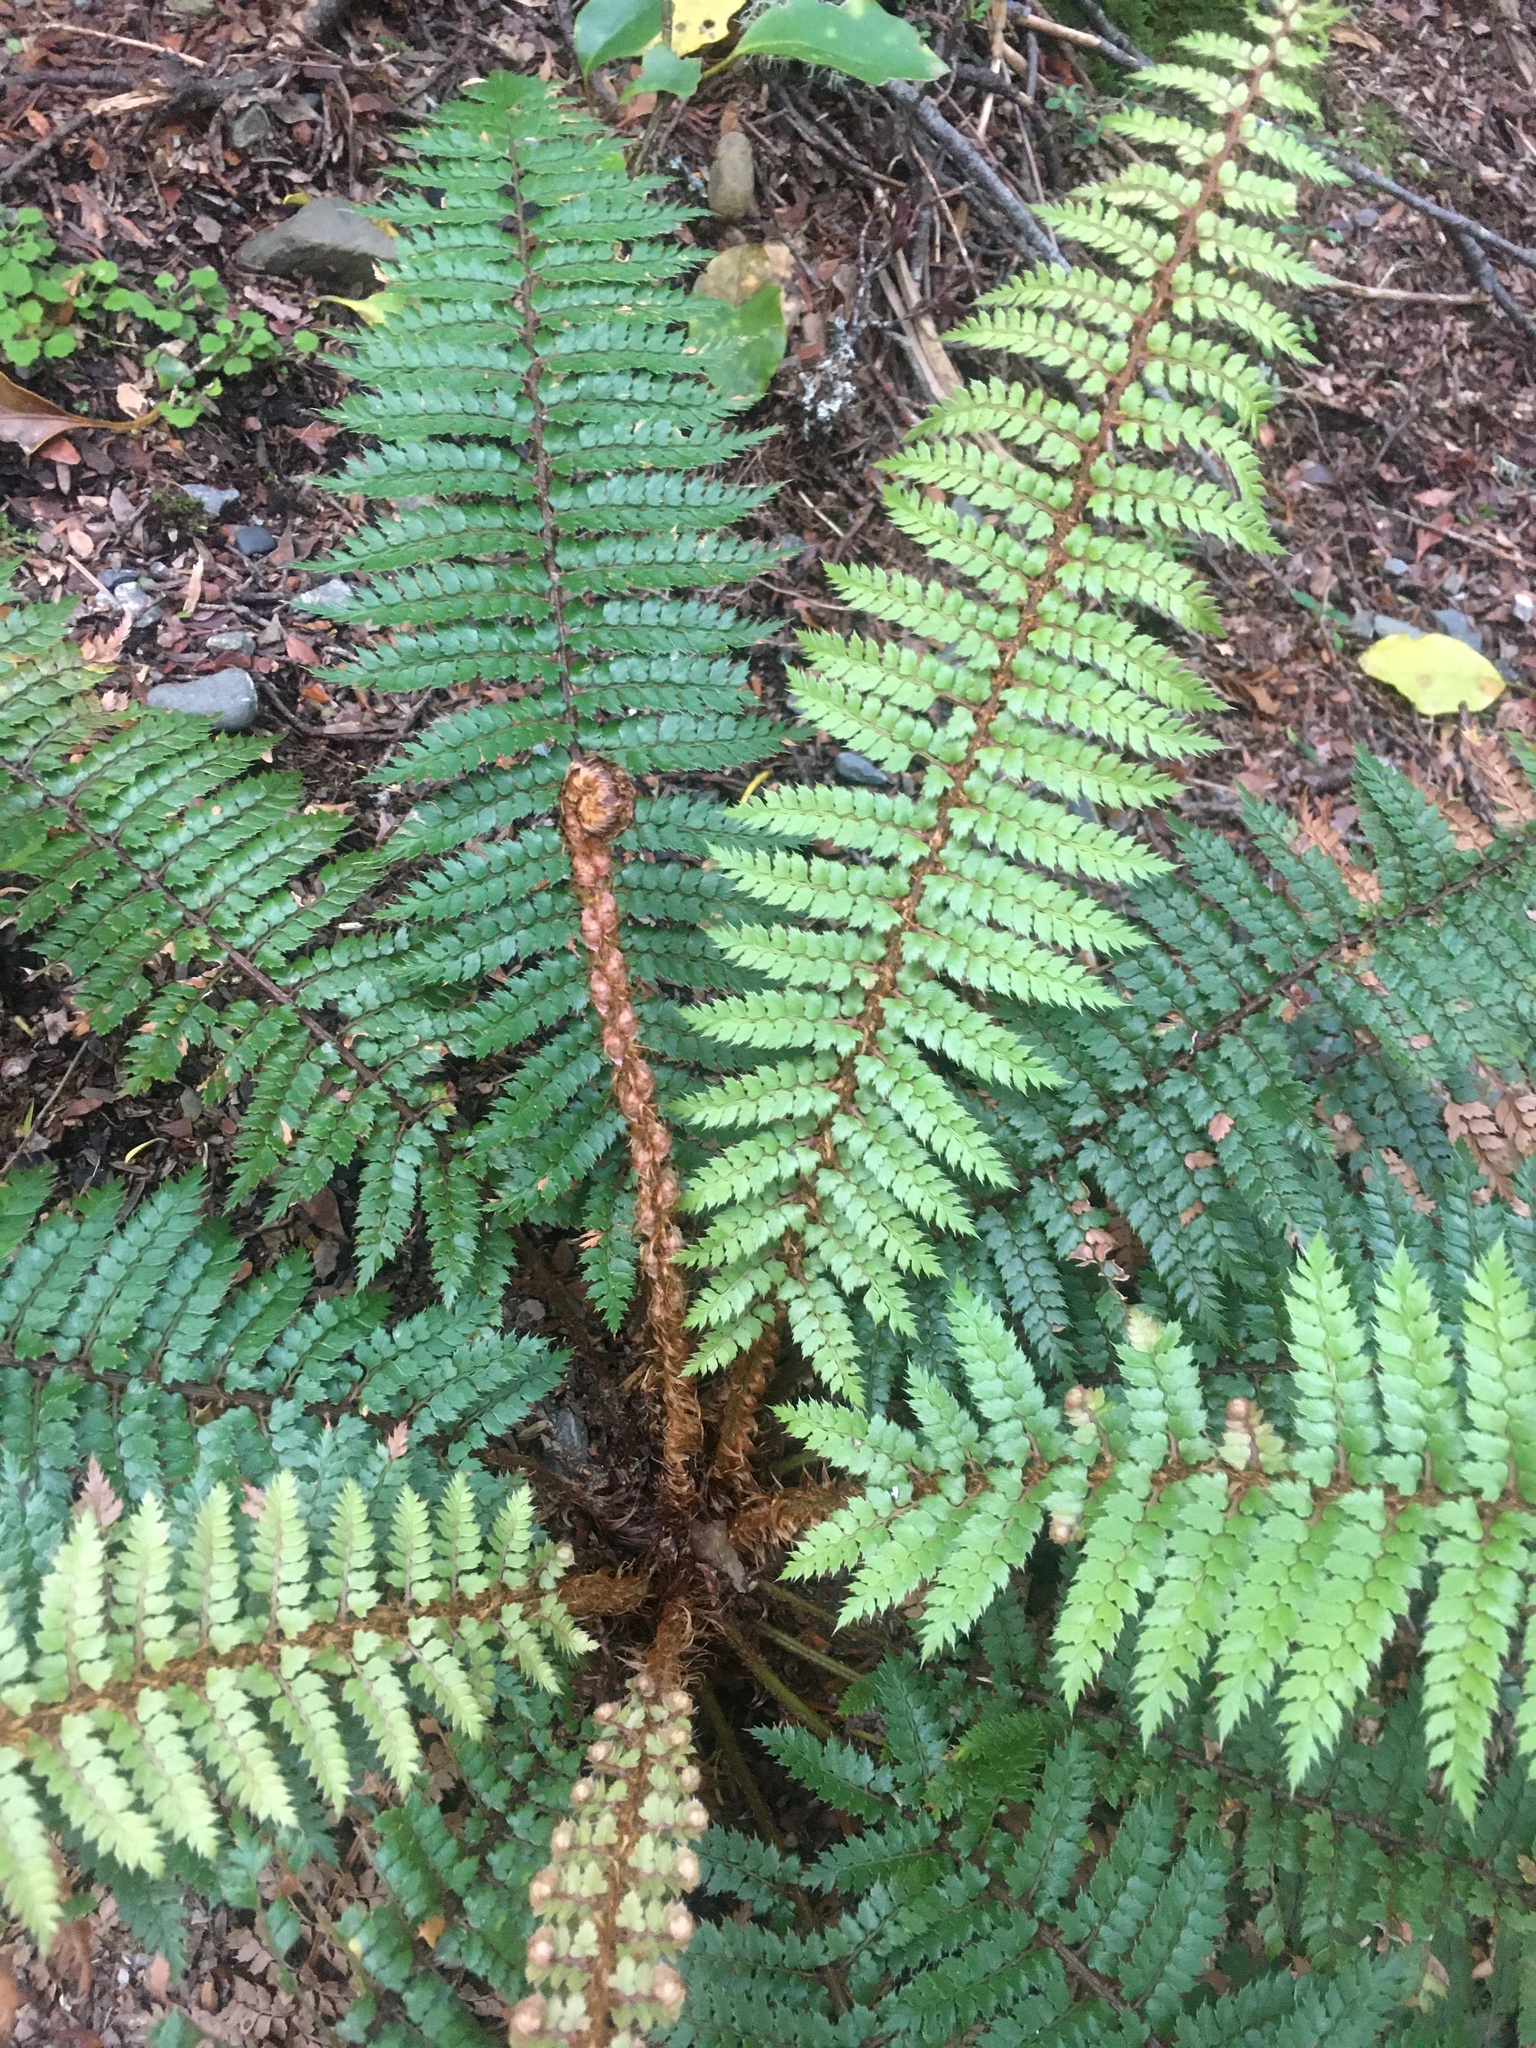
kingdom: Plantae
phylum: Tracheophyta
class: Polypodiopsida
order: Polypodiales
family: Dryopteridaceae
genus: Polystichum
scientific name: Polystichum vestitum
